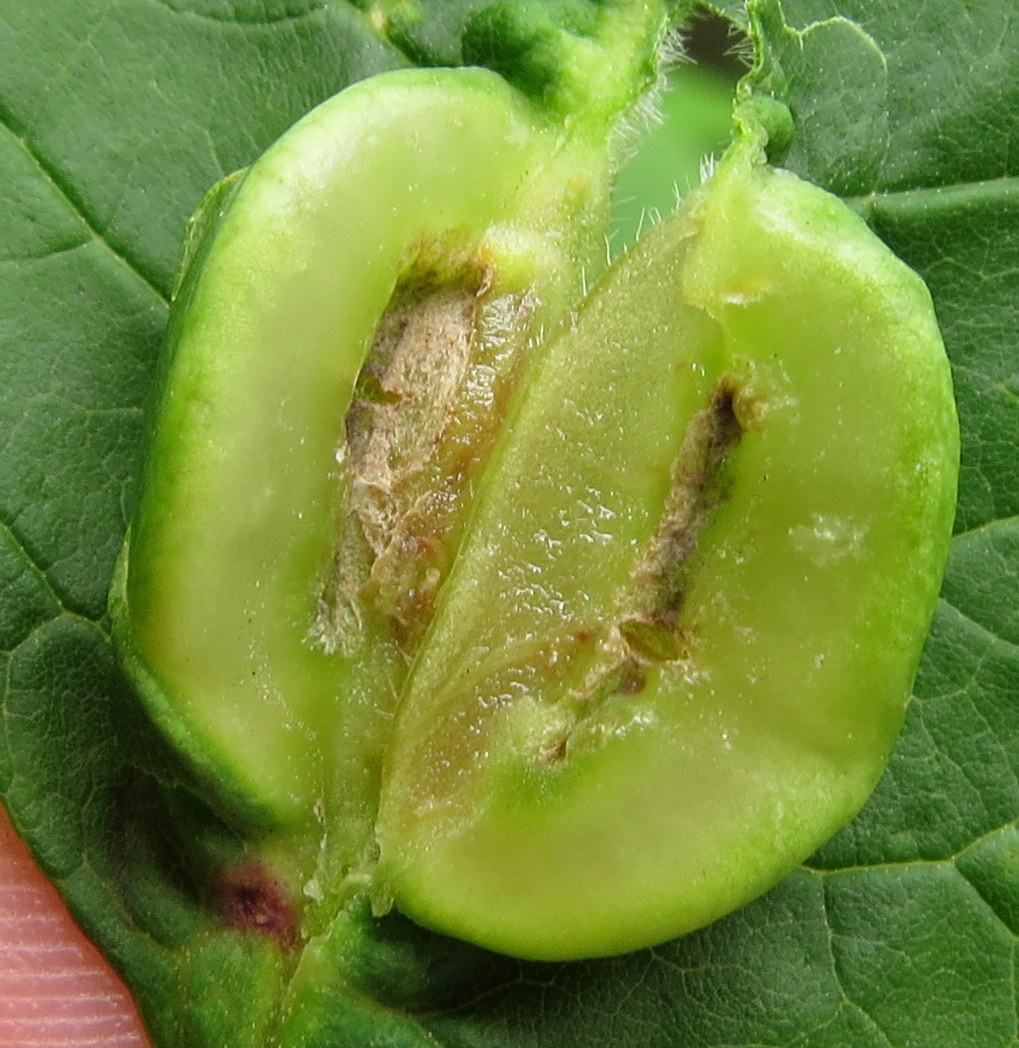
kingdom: Animalia
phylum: Arthropoda
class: Insecta
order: Diptera
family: Cecidomyiidae
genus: Dasineura
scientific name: Dasineura tumidosae
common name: Ash petiole gall midge
